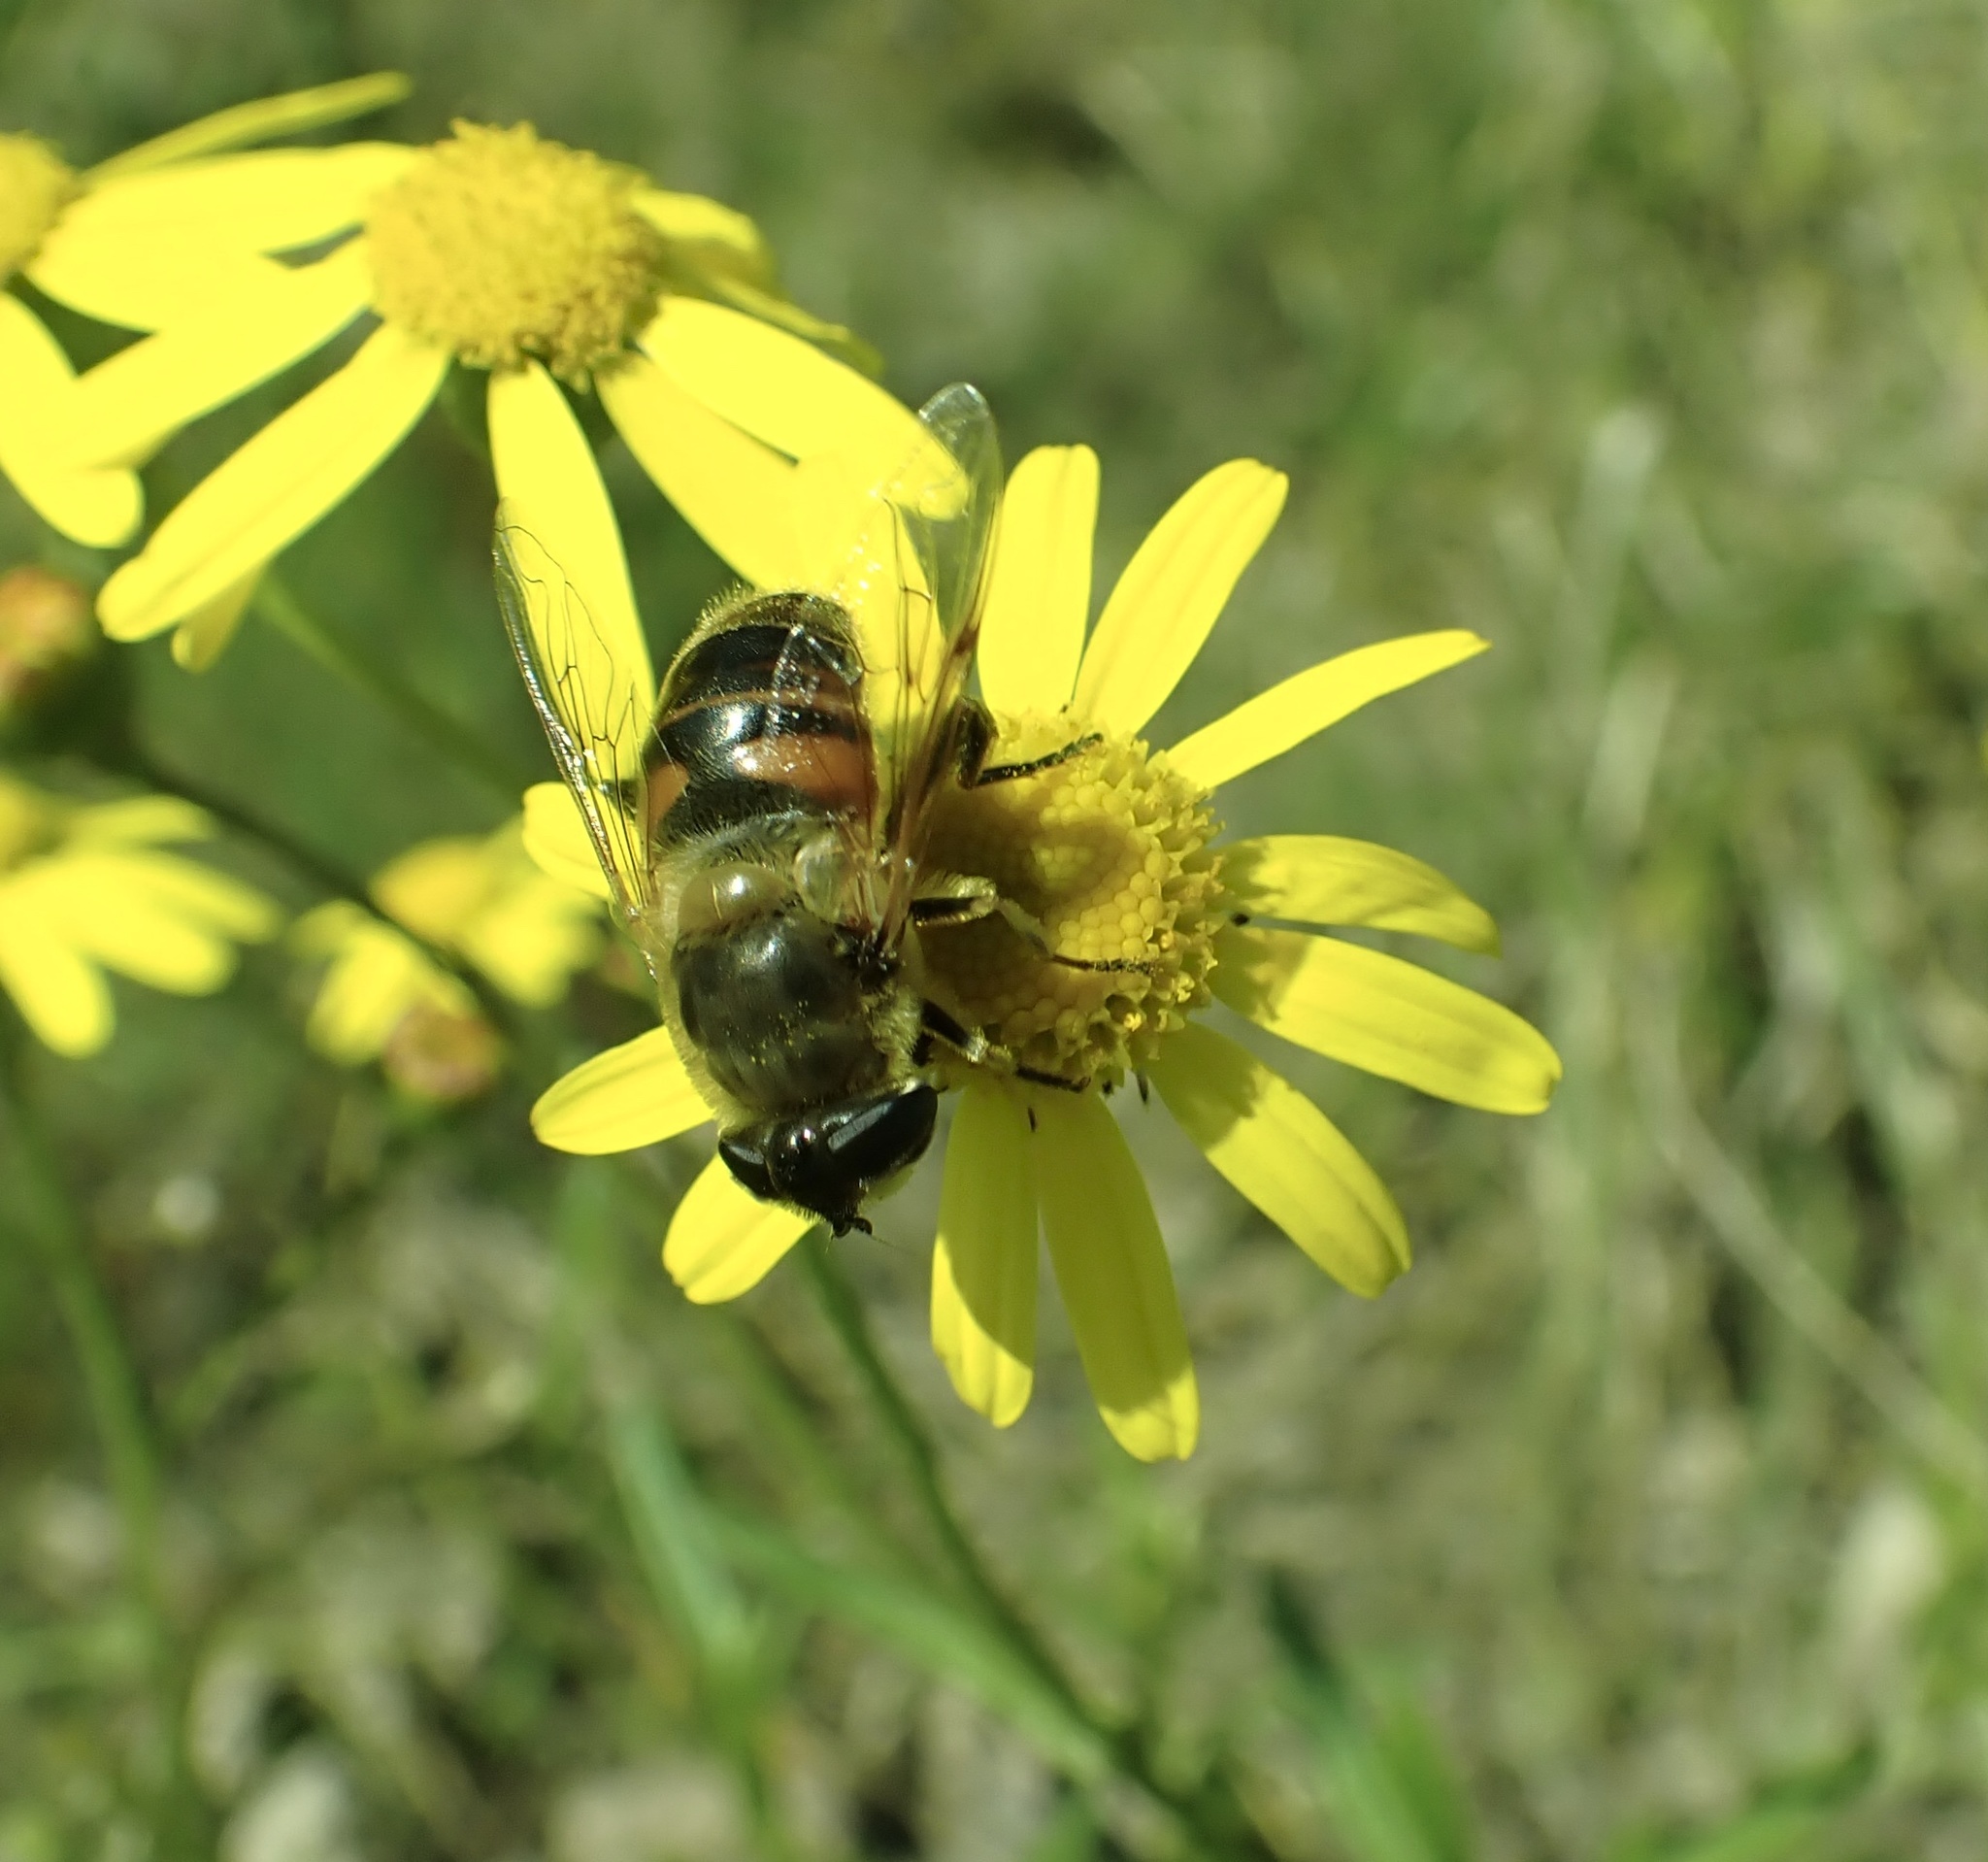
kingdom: Animalia
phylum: Arthropoda
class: Insecta
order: Diptera
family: Syrphidae
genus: Eristalis
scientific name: Eristalis tenax
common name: Drone fly
